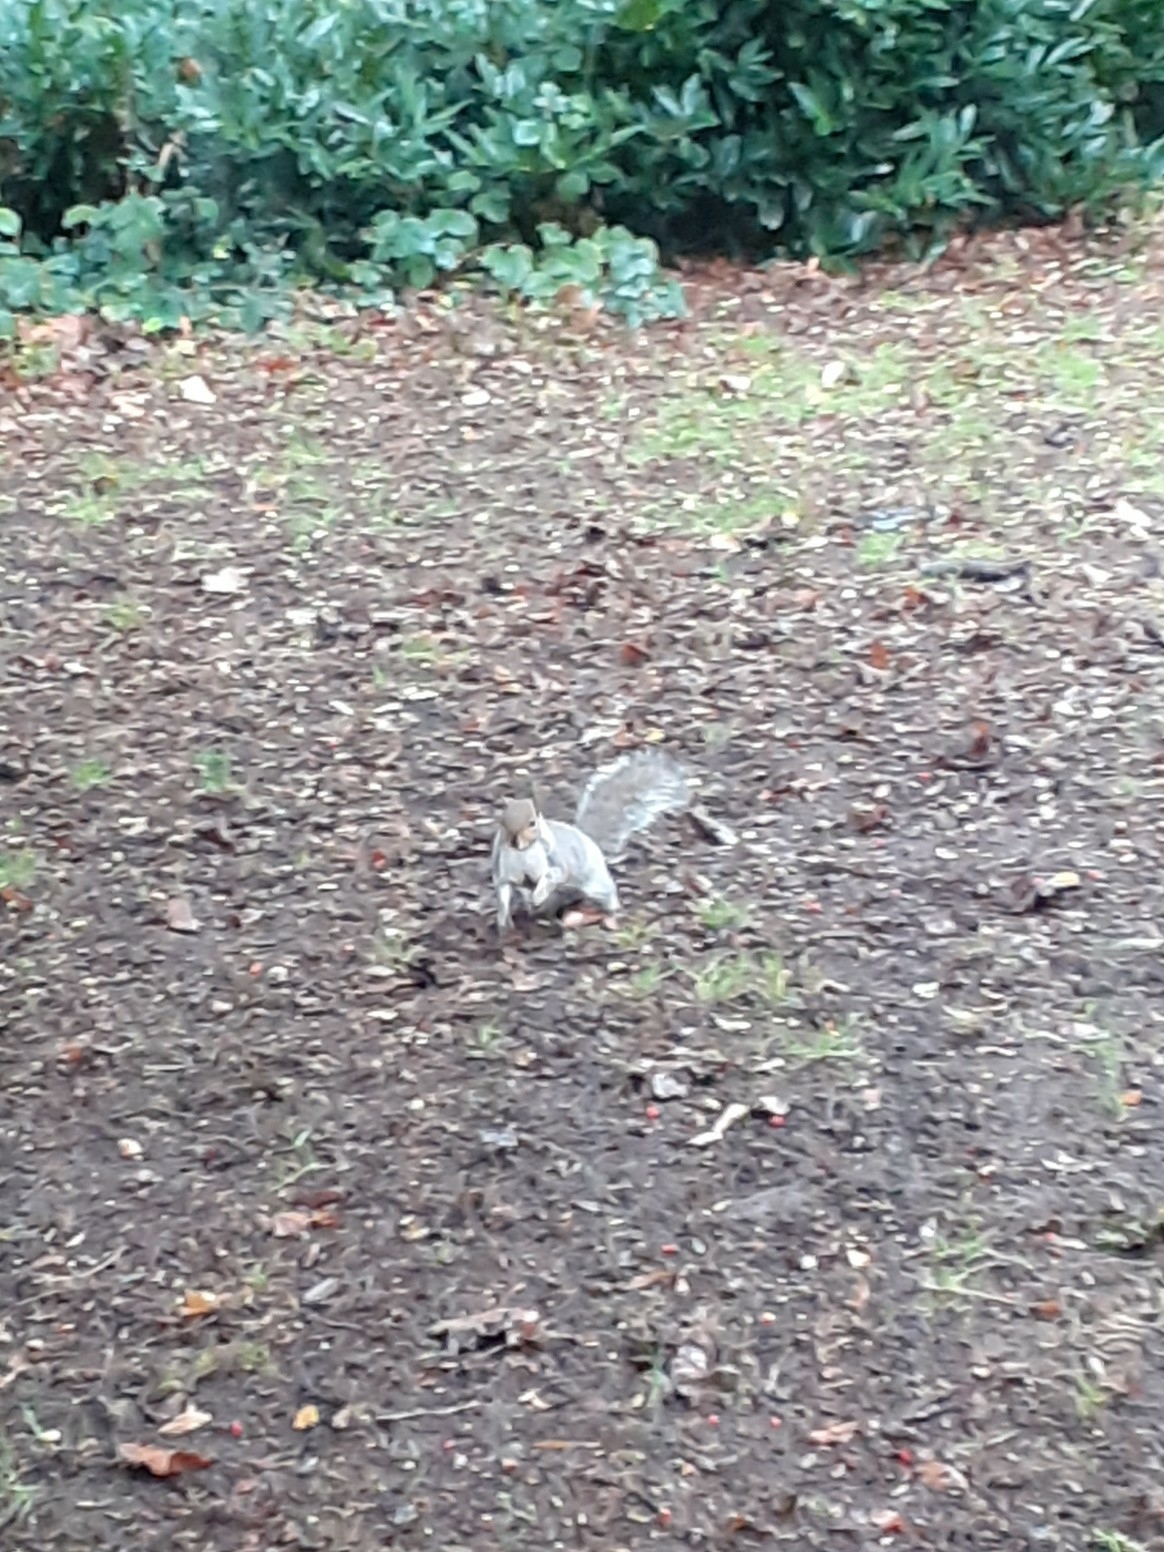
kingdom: Animalia
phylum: Chordata
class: Mammalia
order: Rodentia
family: Sciuridae
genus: Sciurus
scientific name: Sciurus carolinensis
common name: Eastern gray squirrel
